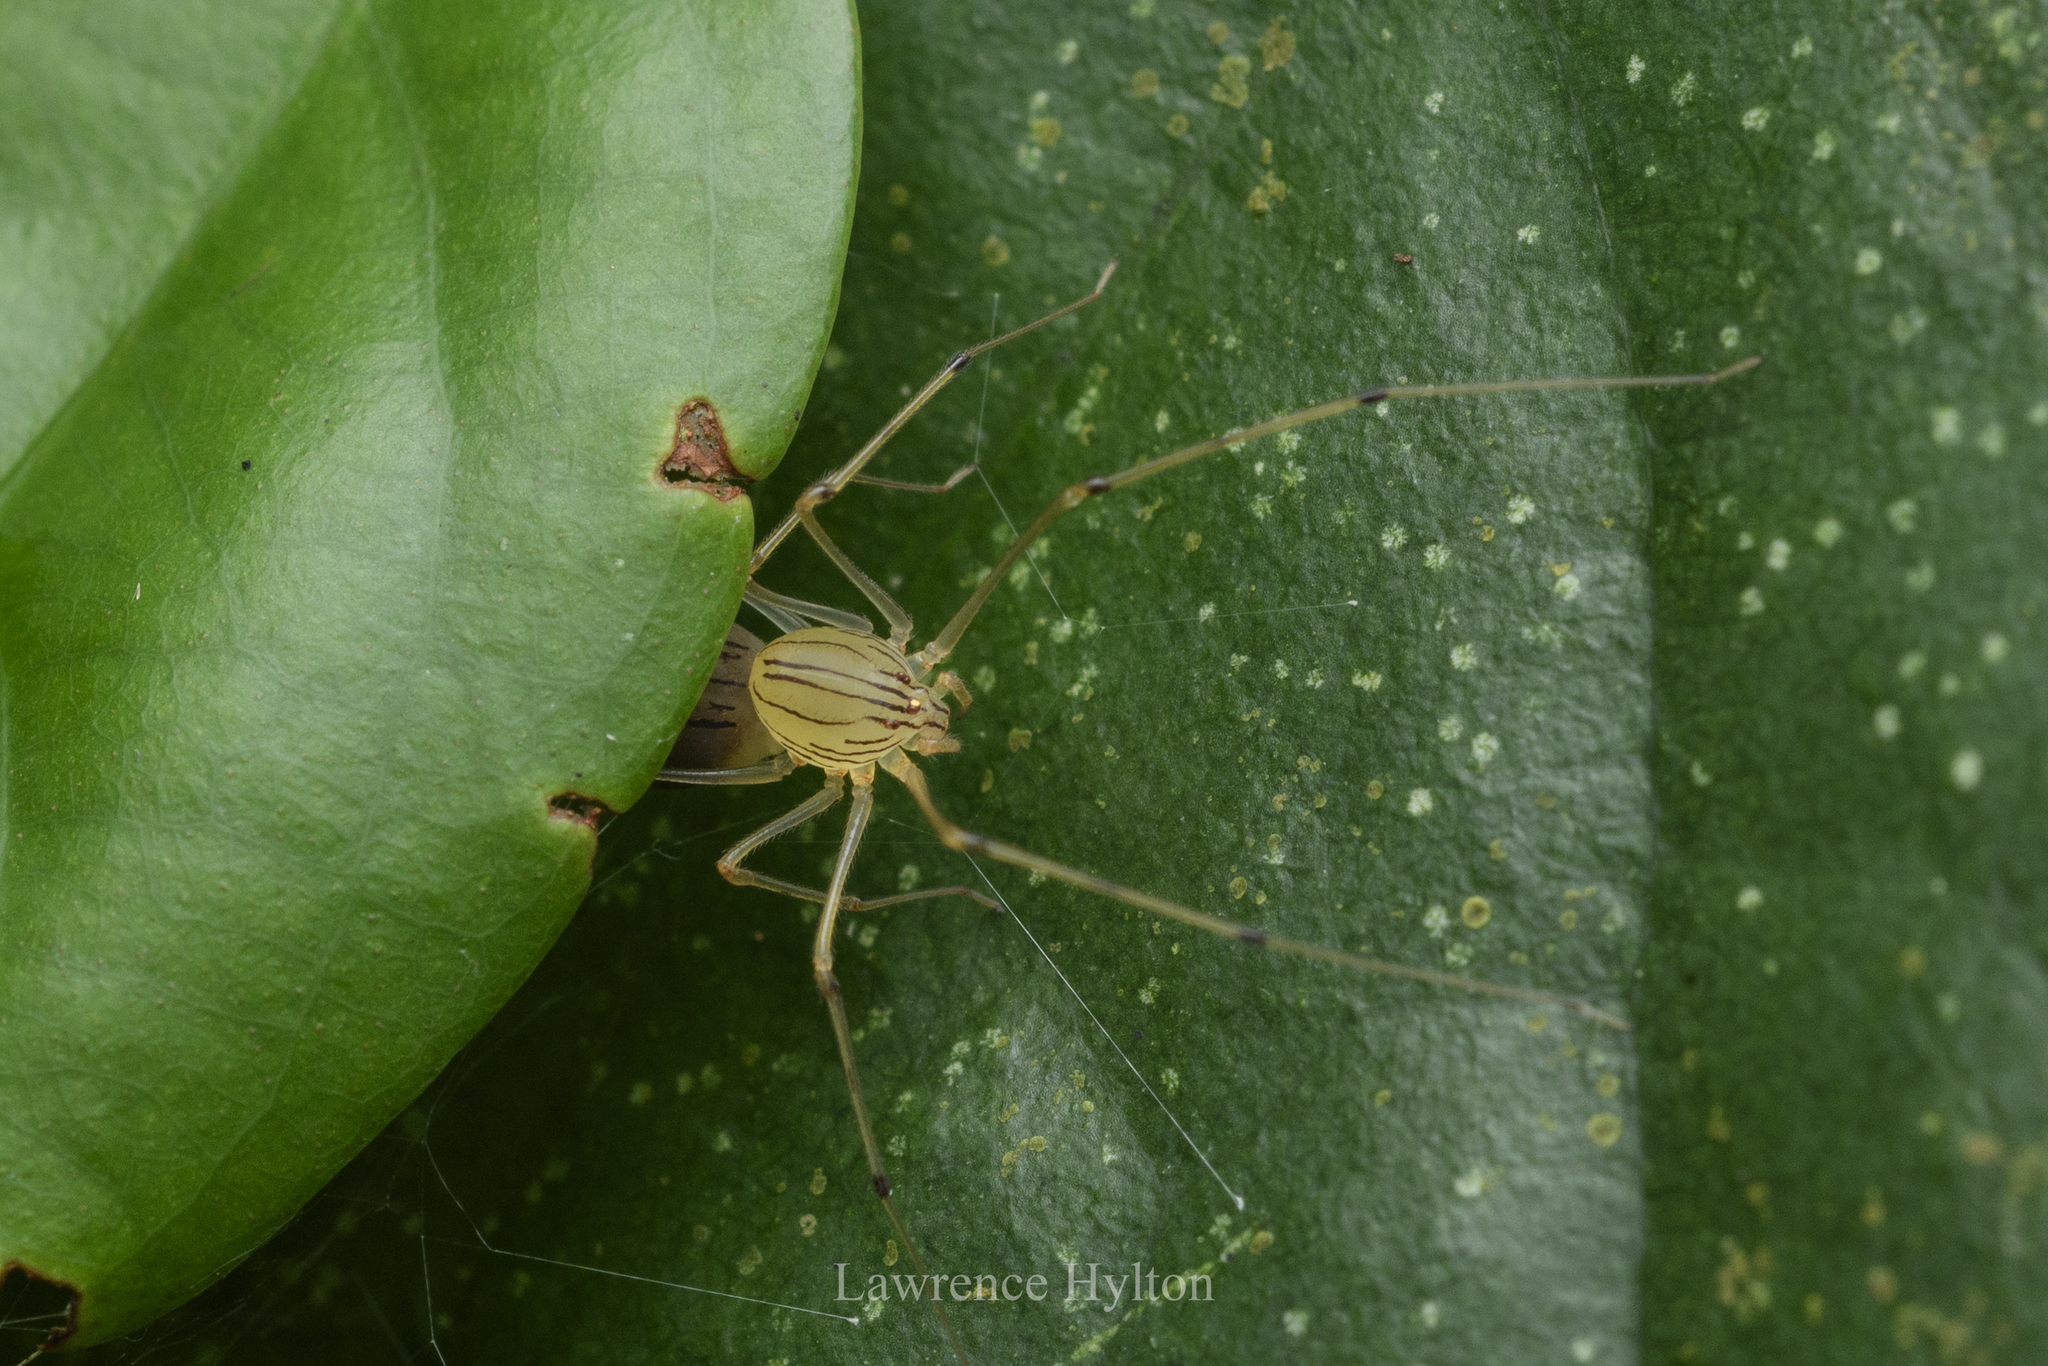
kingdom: Animalia
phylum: Arthropoda
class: Arachnida
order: Araneae
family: Scytodidae
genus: Scytodes
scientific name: Scytodes pallida
